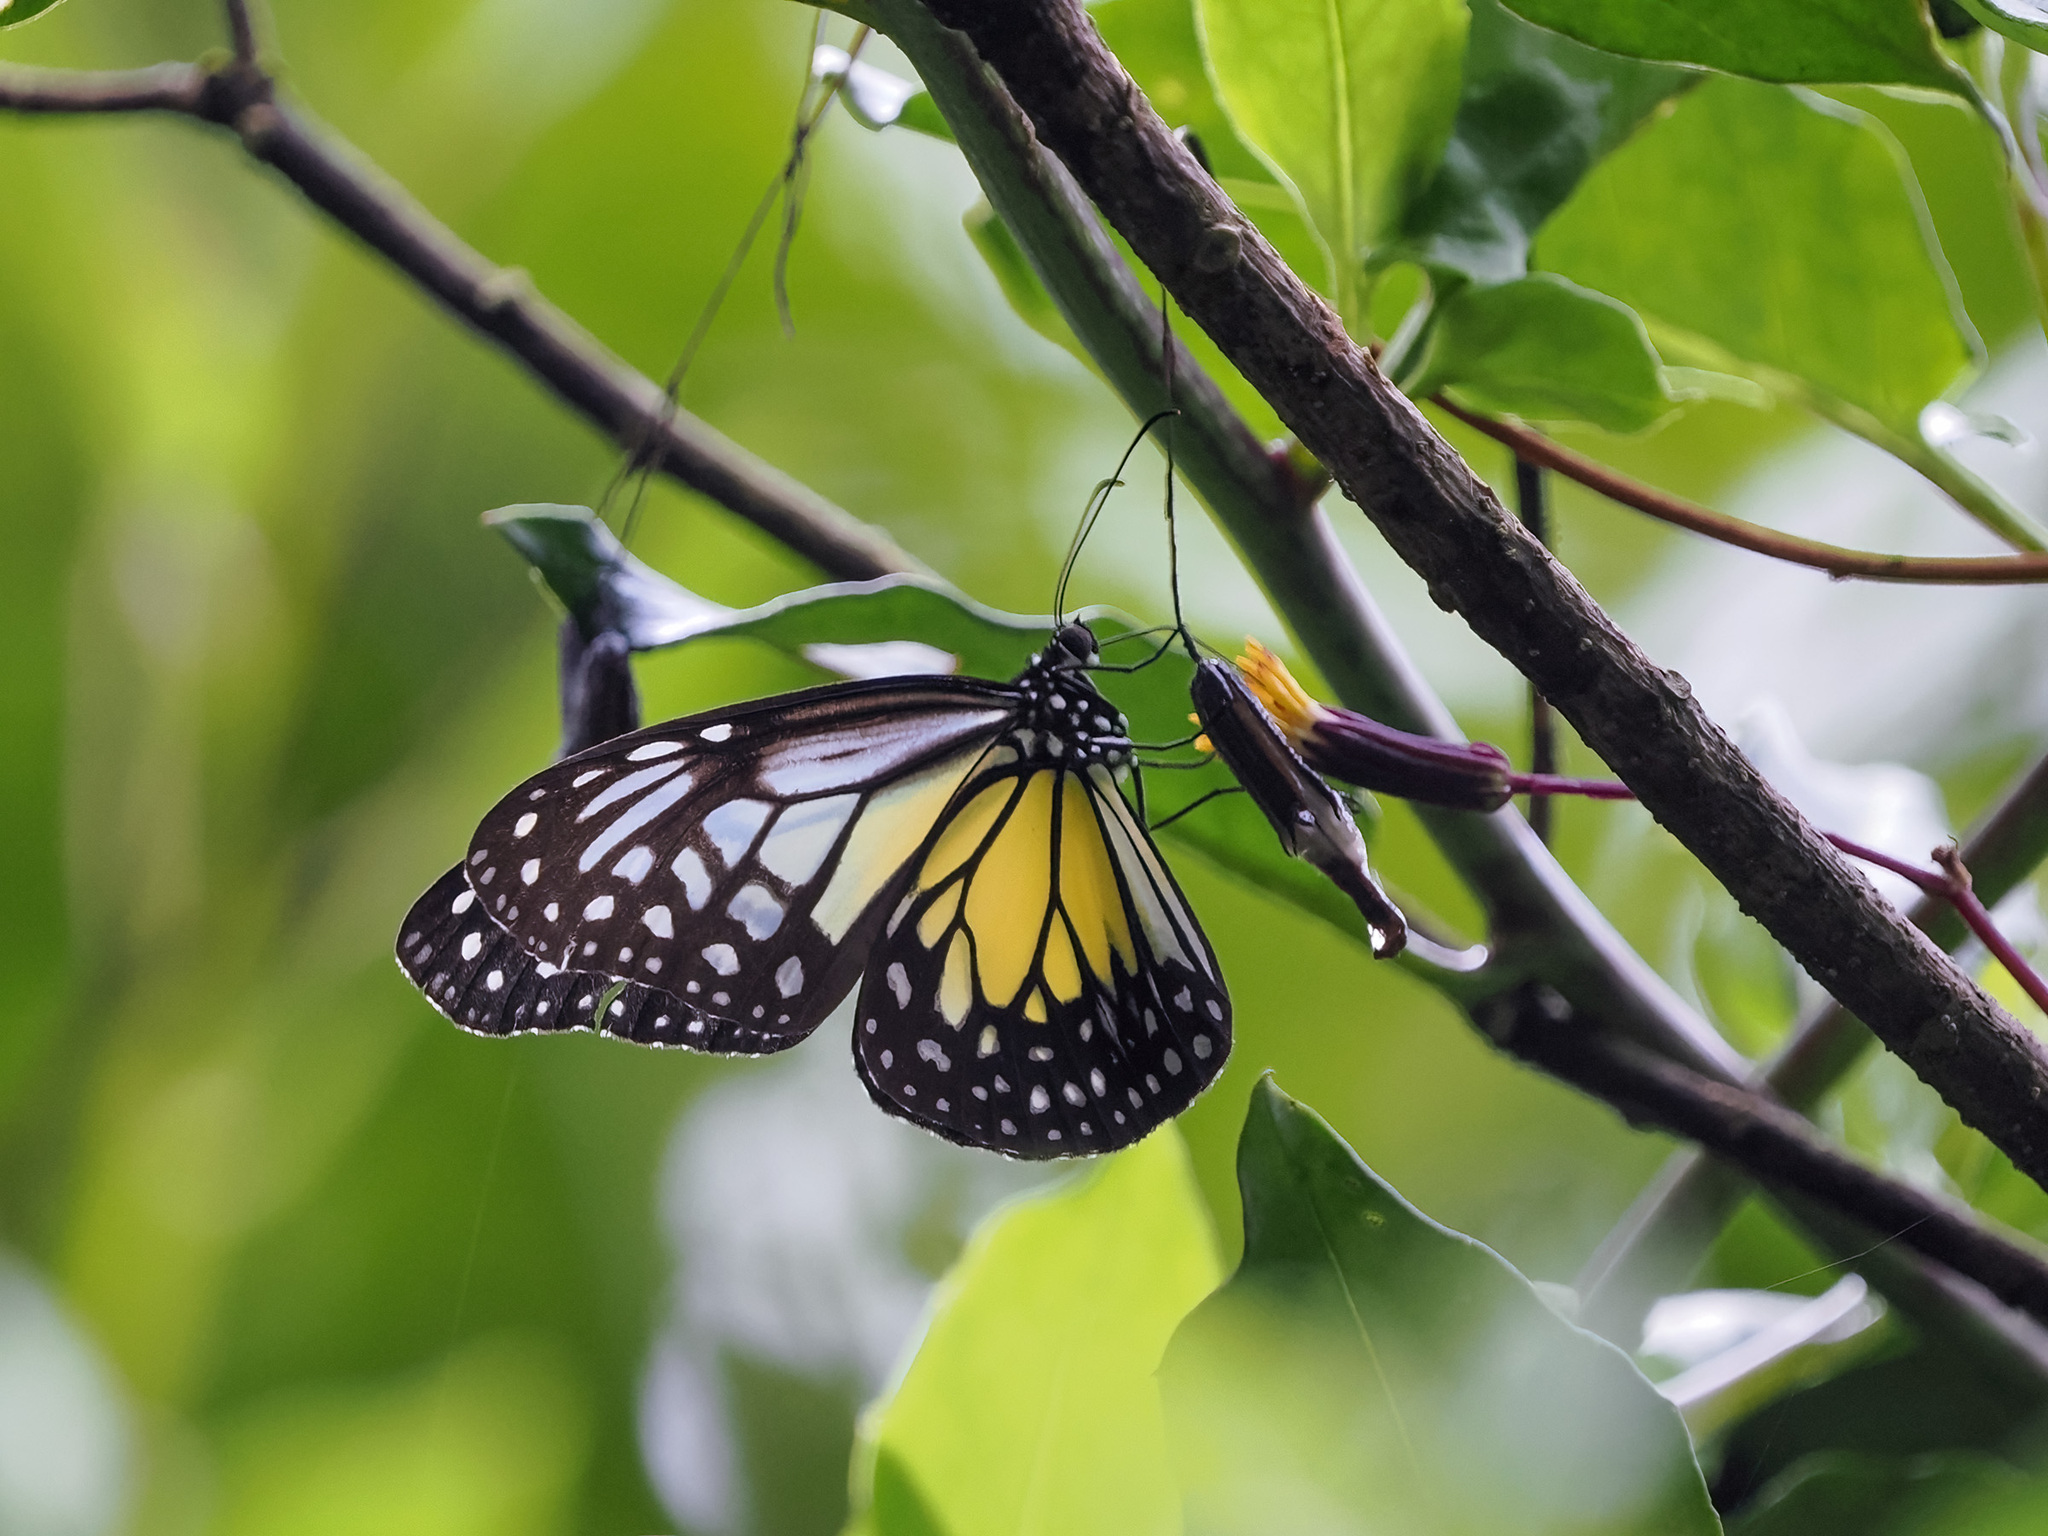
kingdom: Animalia
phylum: Arthropoda
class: Insecta
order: Lepidoptera
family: Nymphalidae
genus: Parantica
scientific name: Parantica aspasia
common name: Yellow glassy tiger
